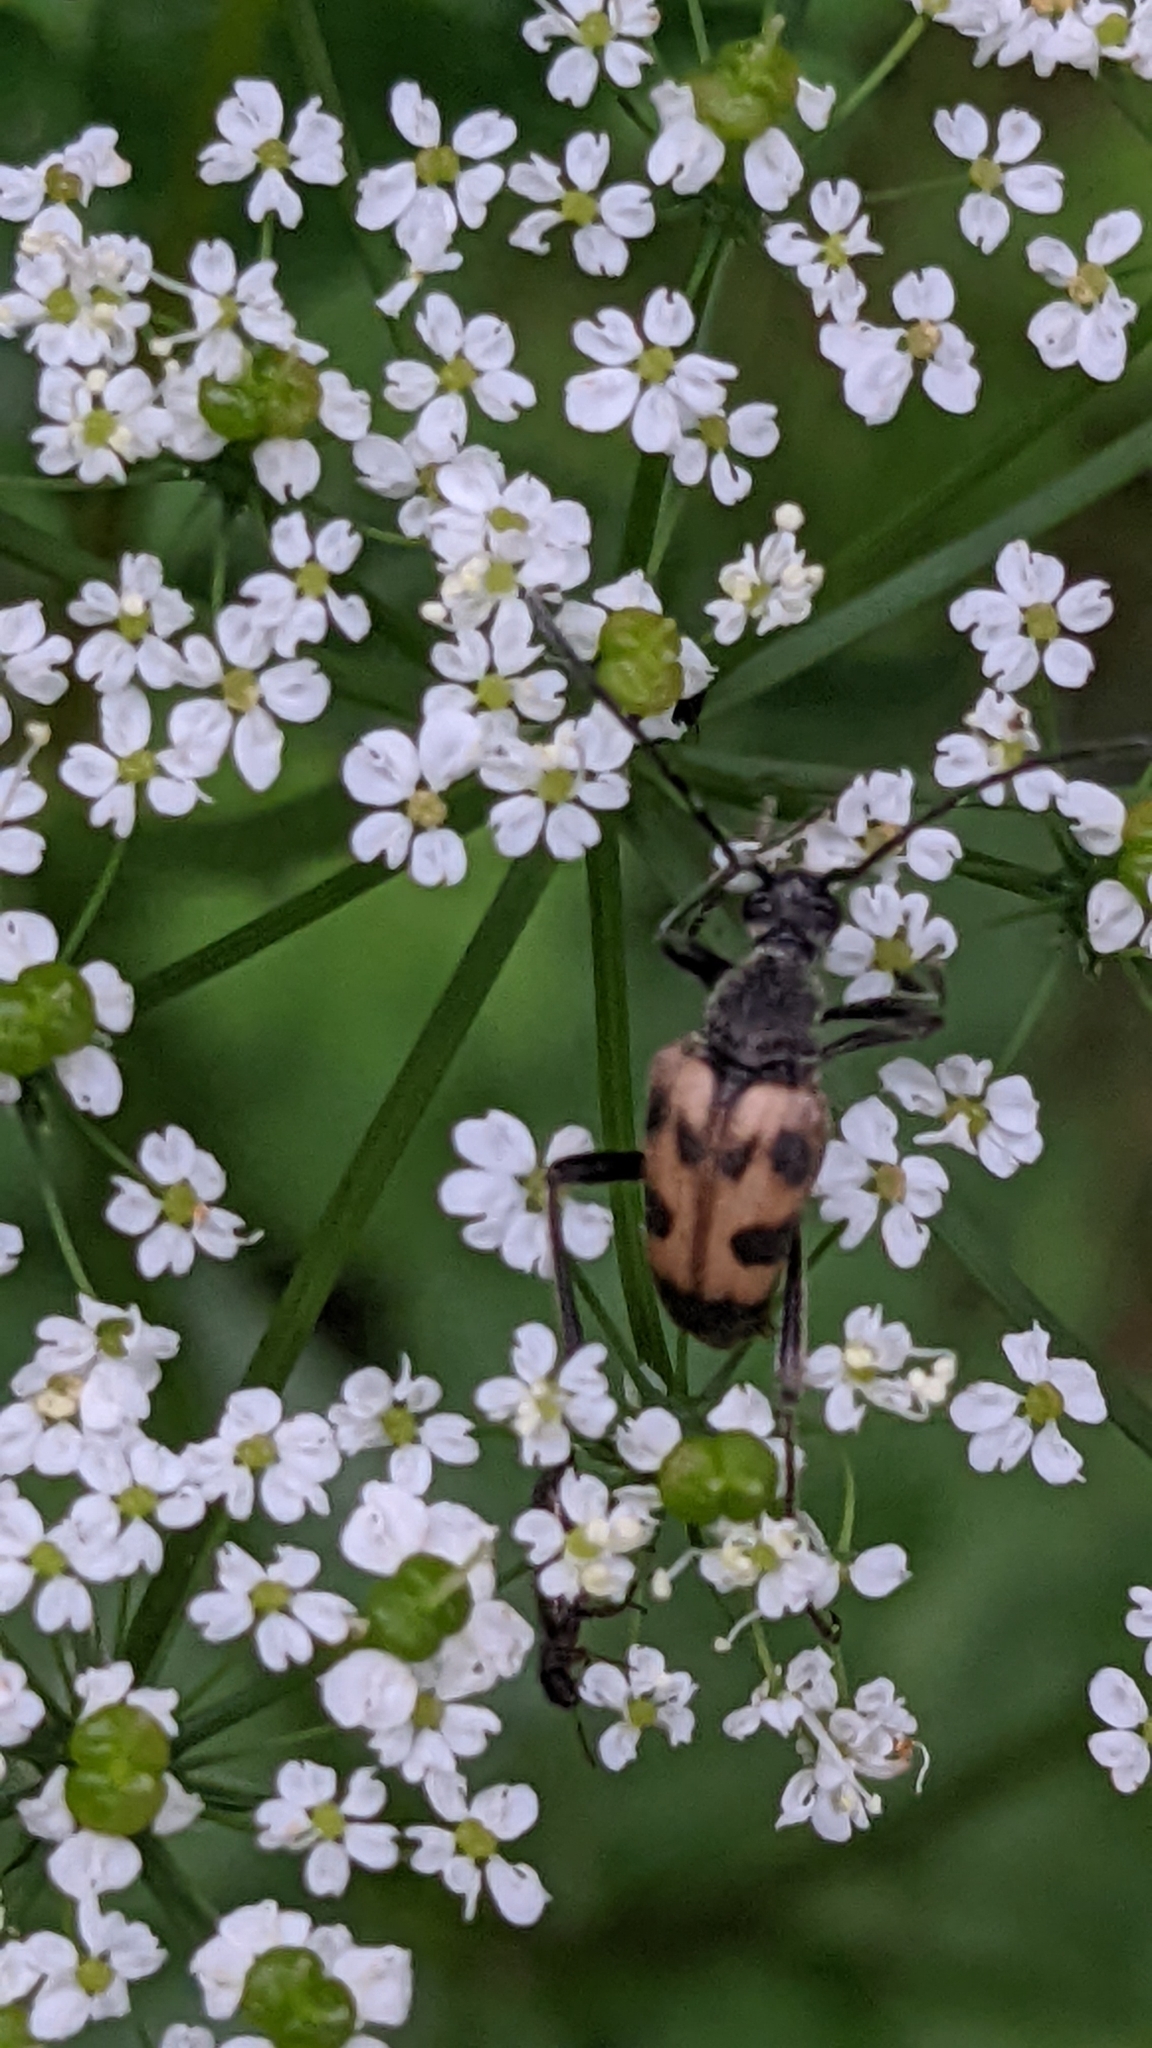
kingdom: Animalia
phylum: Arthropoda
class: Insecta
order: Coleoptera
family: Cerambycidae
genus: Pachytodes
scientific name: Pachytodes cerambyciformis
